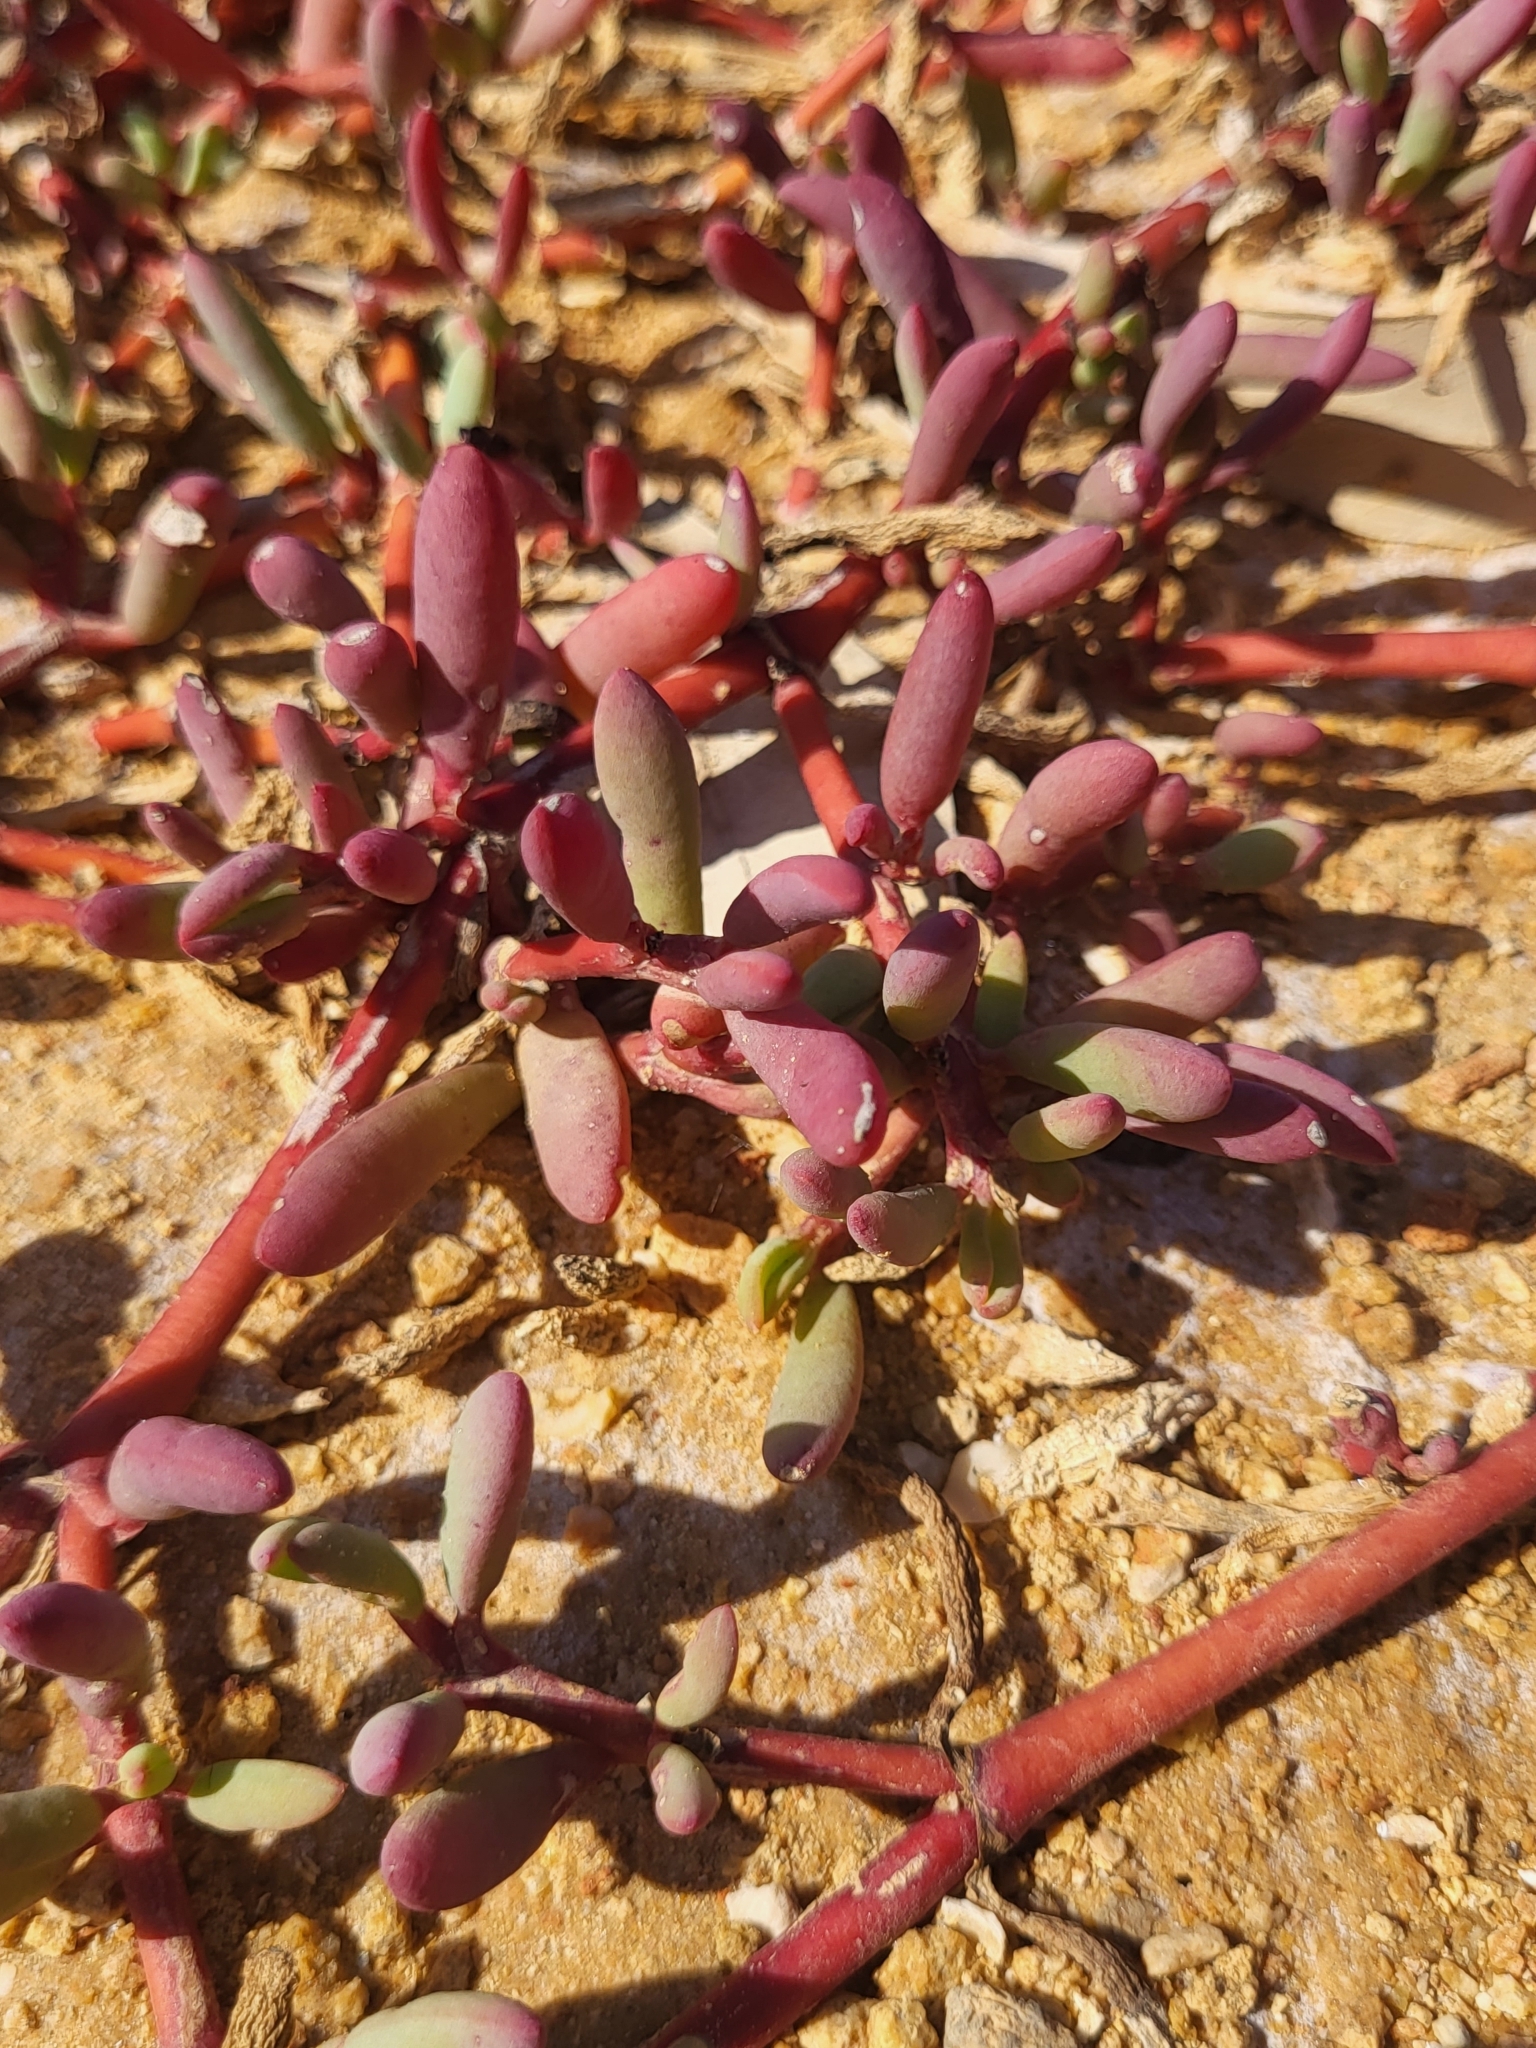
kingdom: Plantae
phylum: Tracheophyta
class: Magnoliopsida
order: Caryophyllales
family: Aizoaceae
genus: Sesuvium
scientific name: Sesuvium portulacastrum
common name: Sea-purslane
